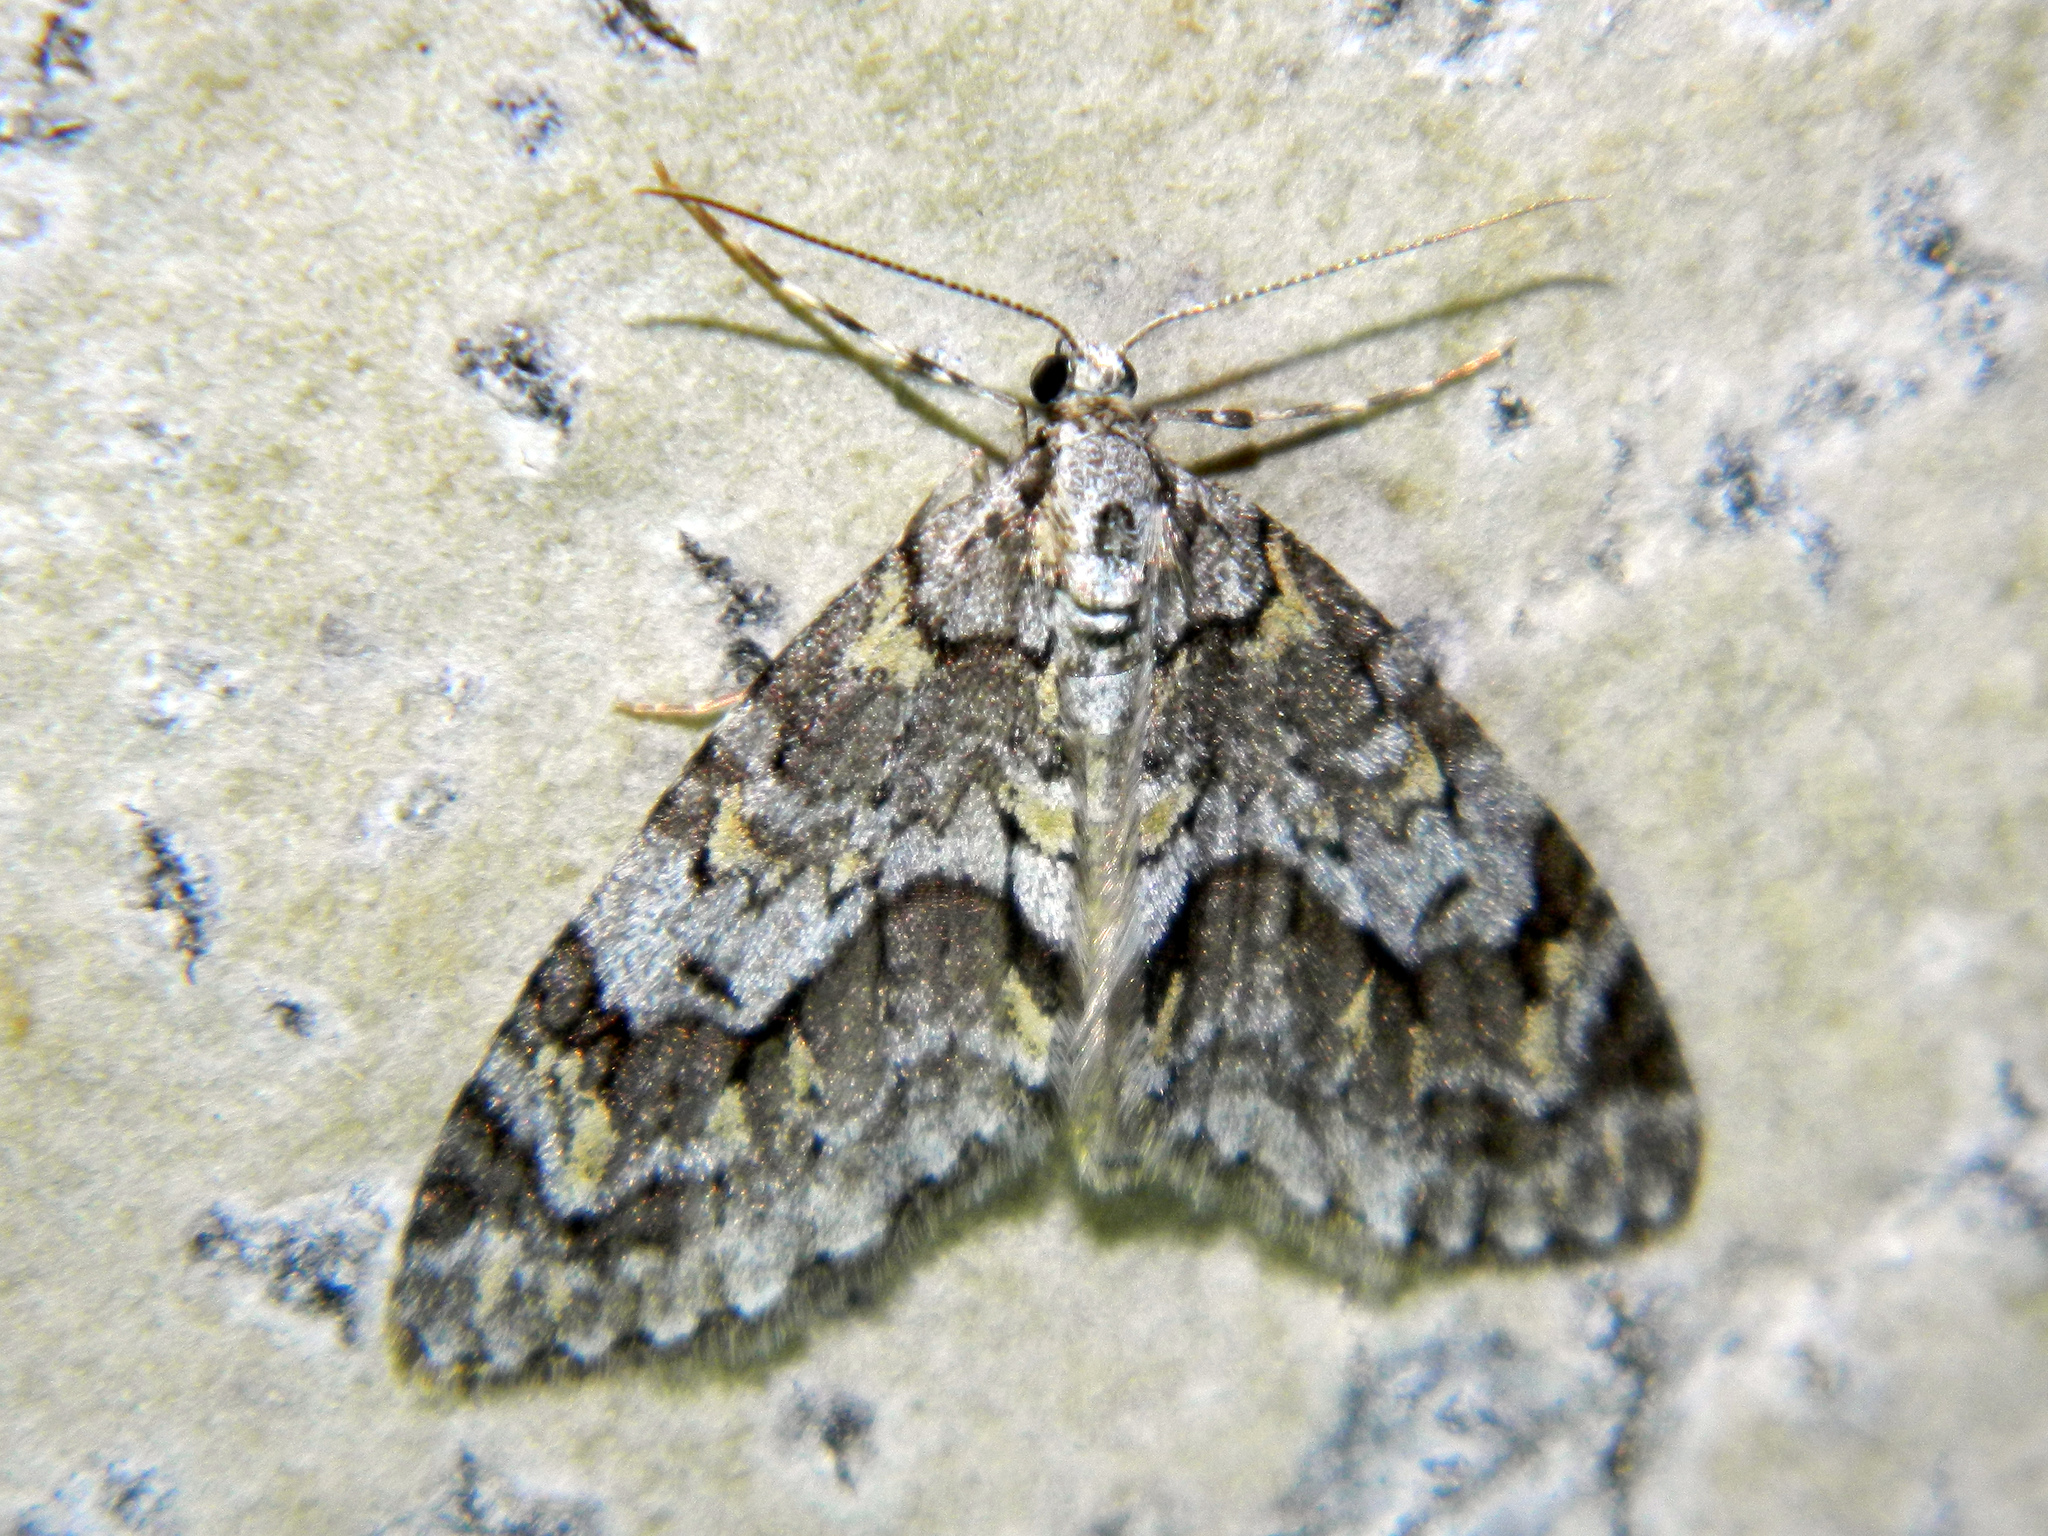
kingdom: Animalia
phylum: Arthropoda
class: Insecta
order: Lepidoptera
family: Geometridae
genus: Cladara
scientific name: Cladara limitaria
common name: Mottled gray carpet
